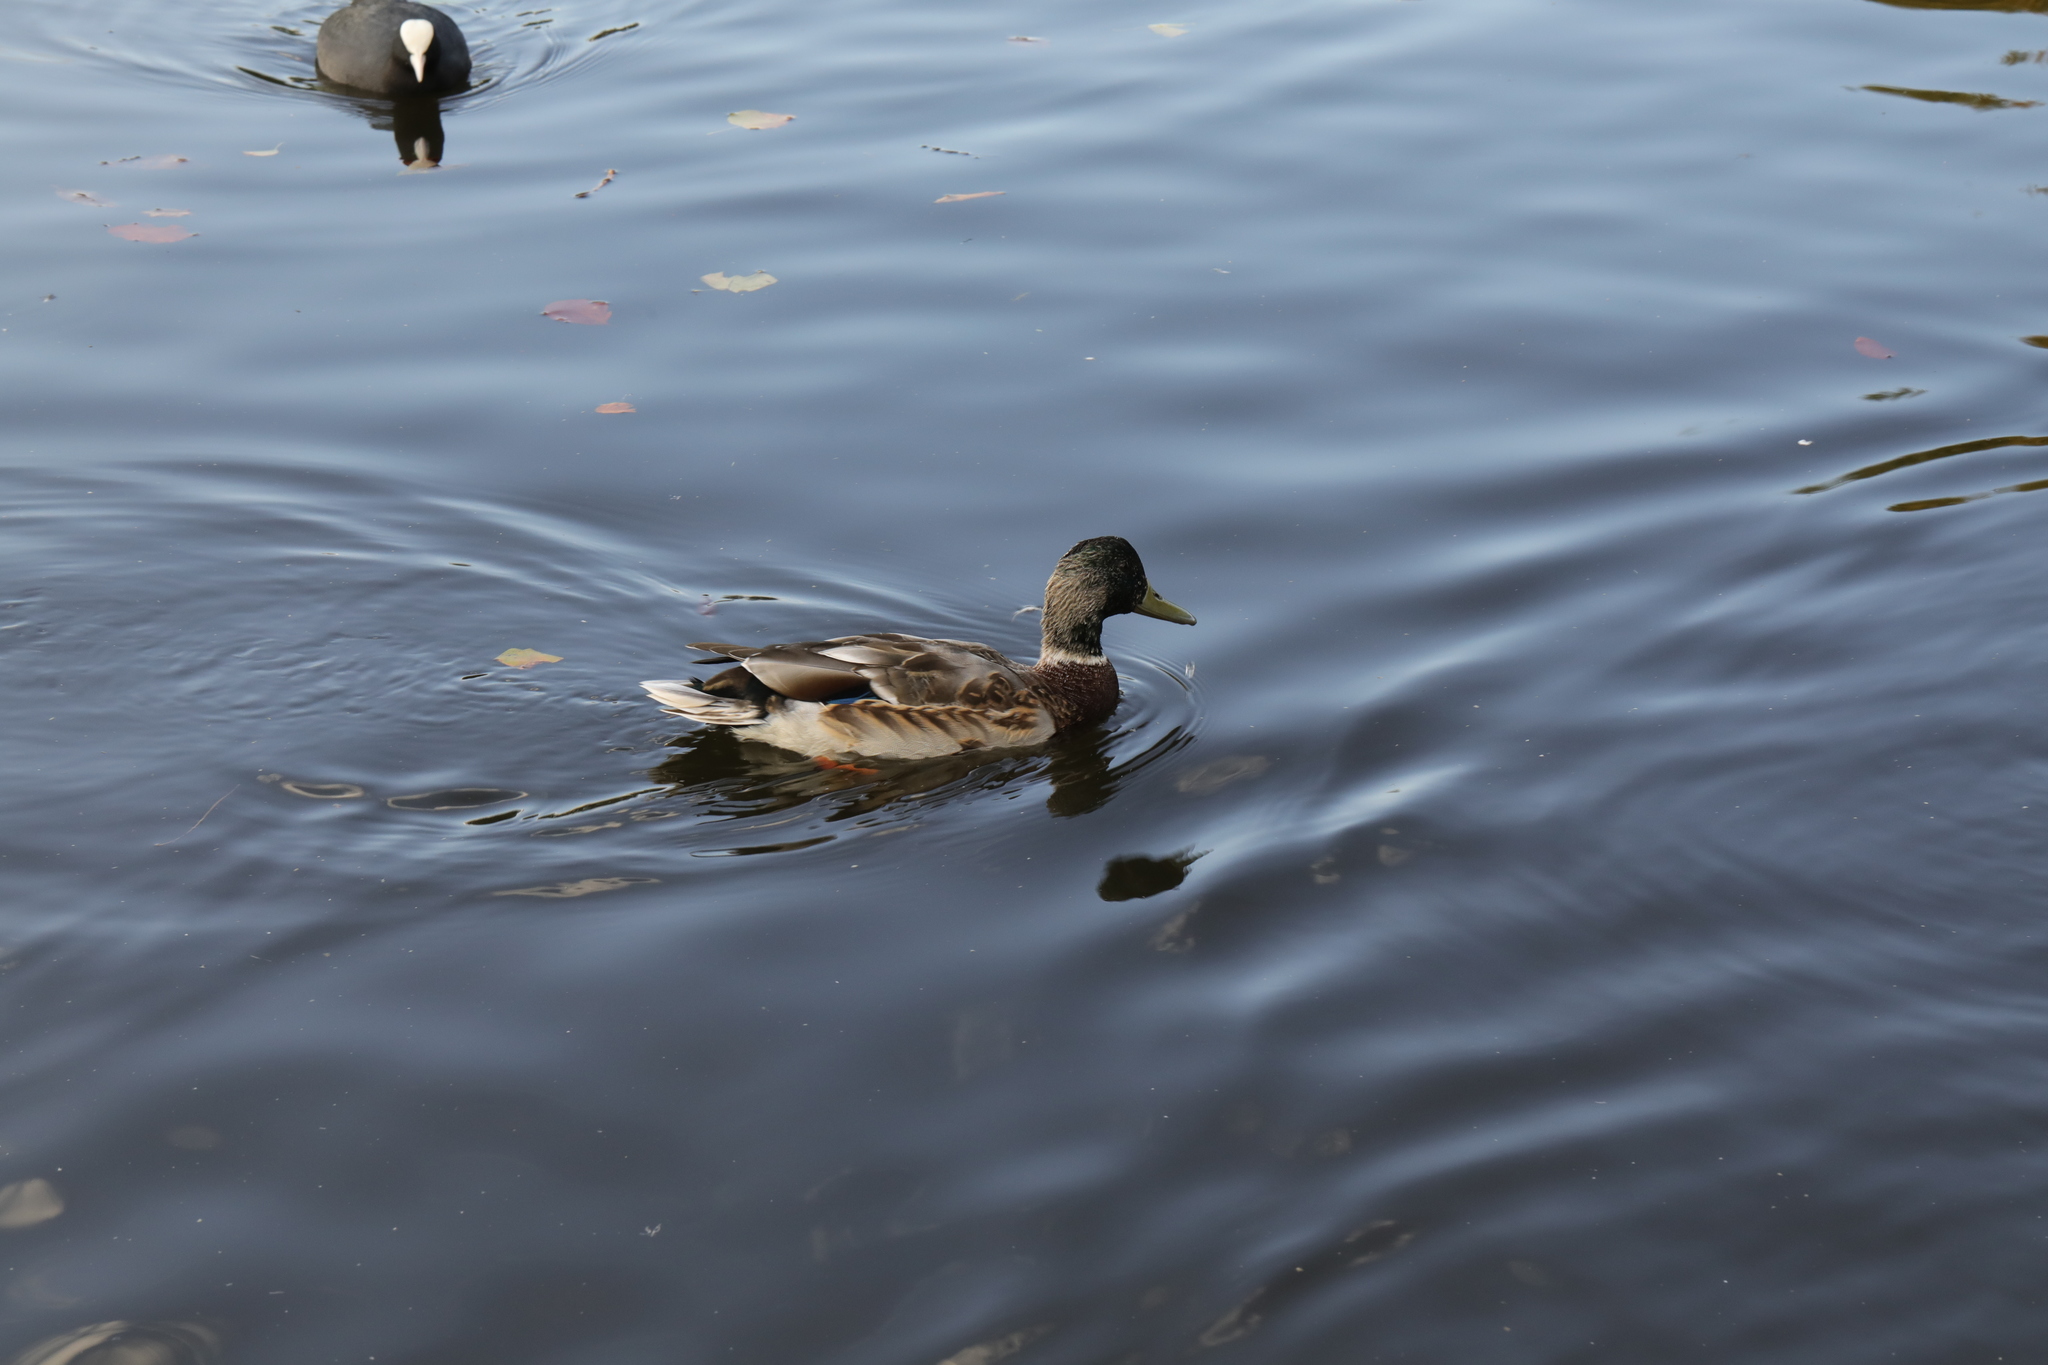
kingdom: Animalia
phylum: Chordata
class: Aves
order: Anseriformes
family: Anatidae
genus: Anas
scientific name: Anas platyrhynchos
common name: Mallard
